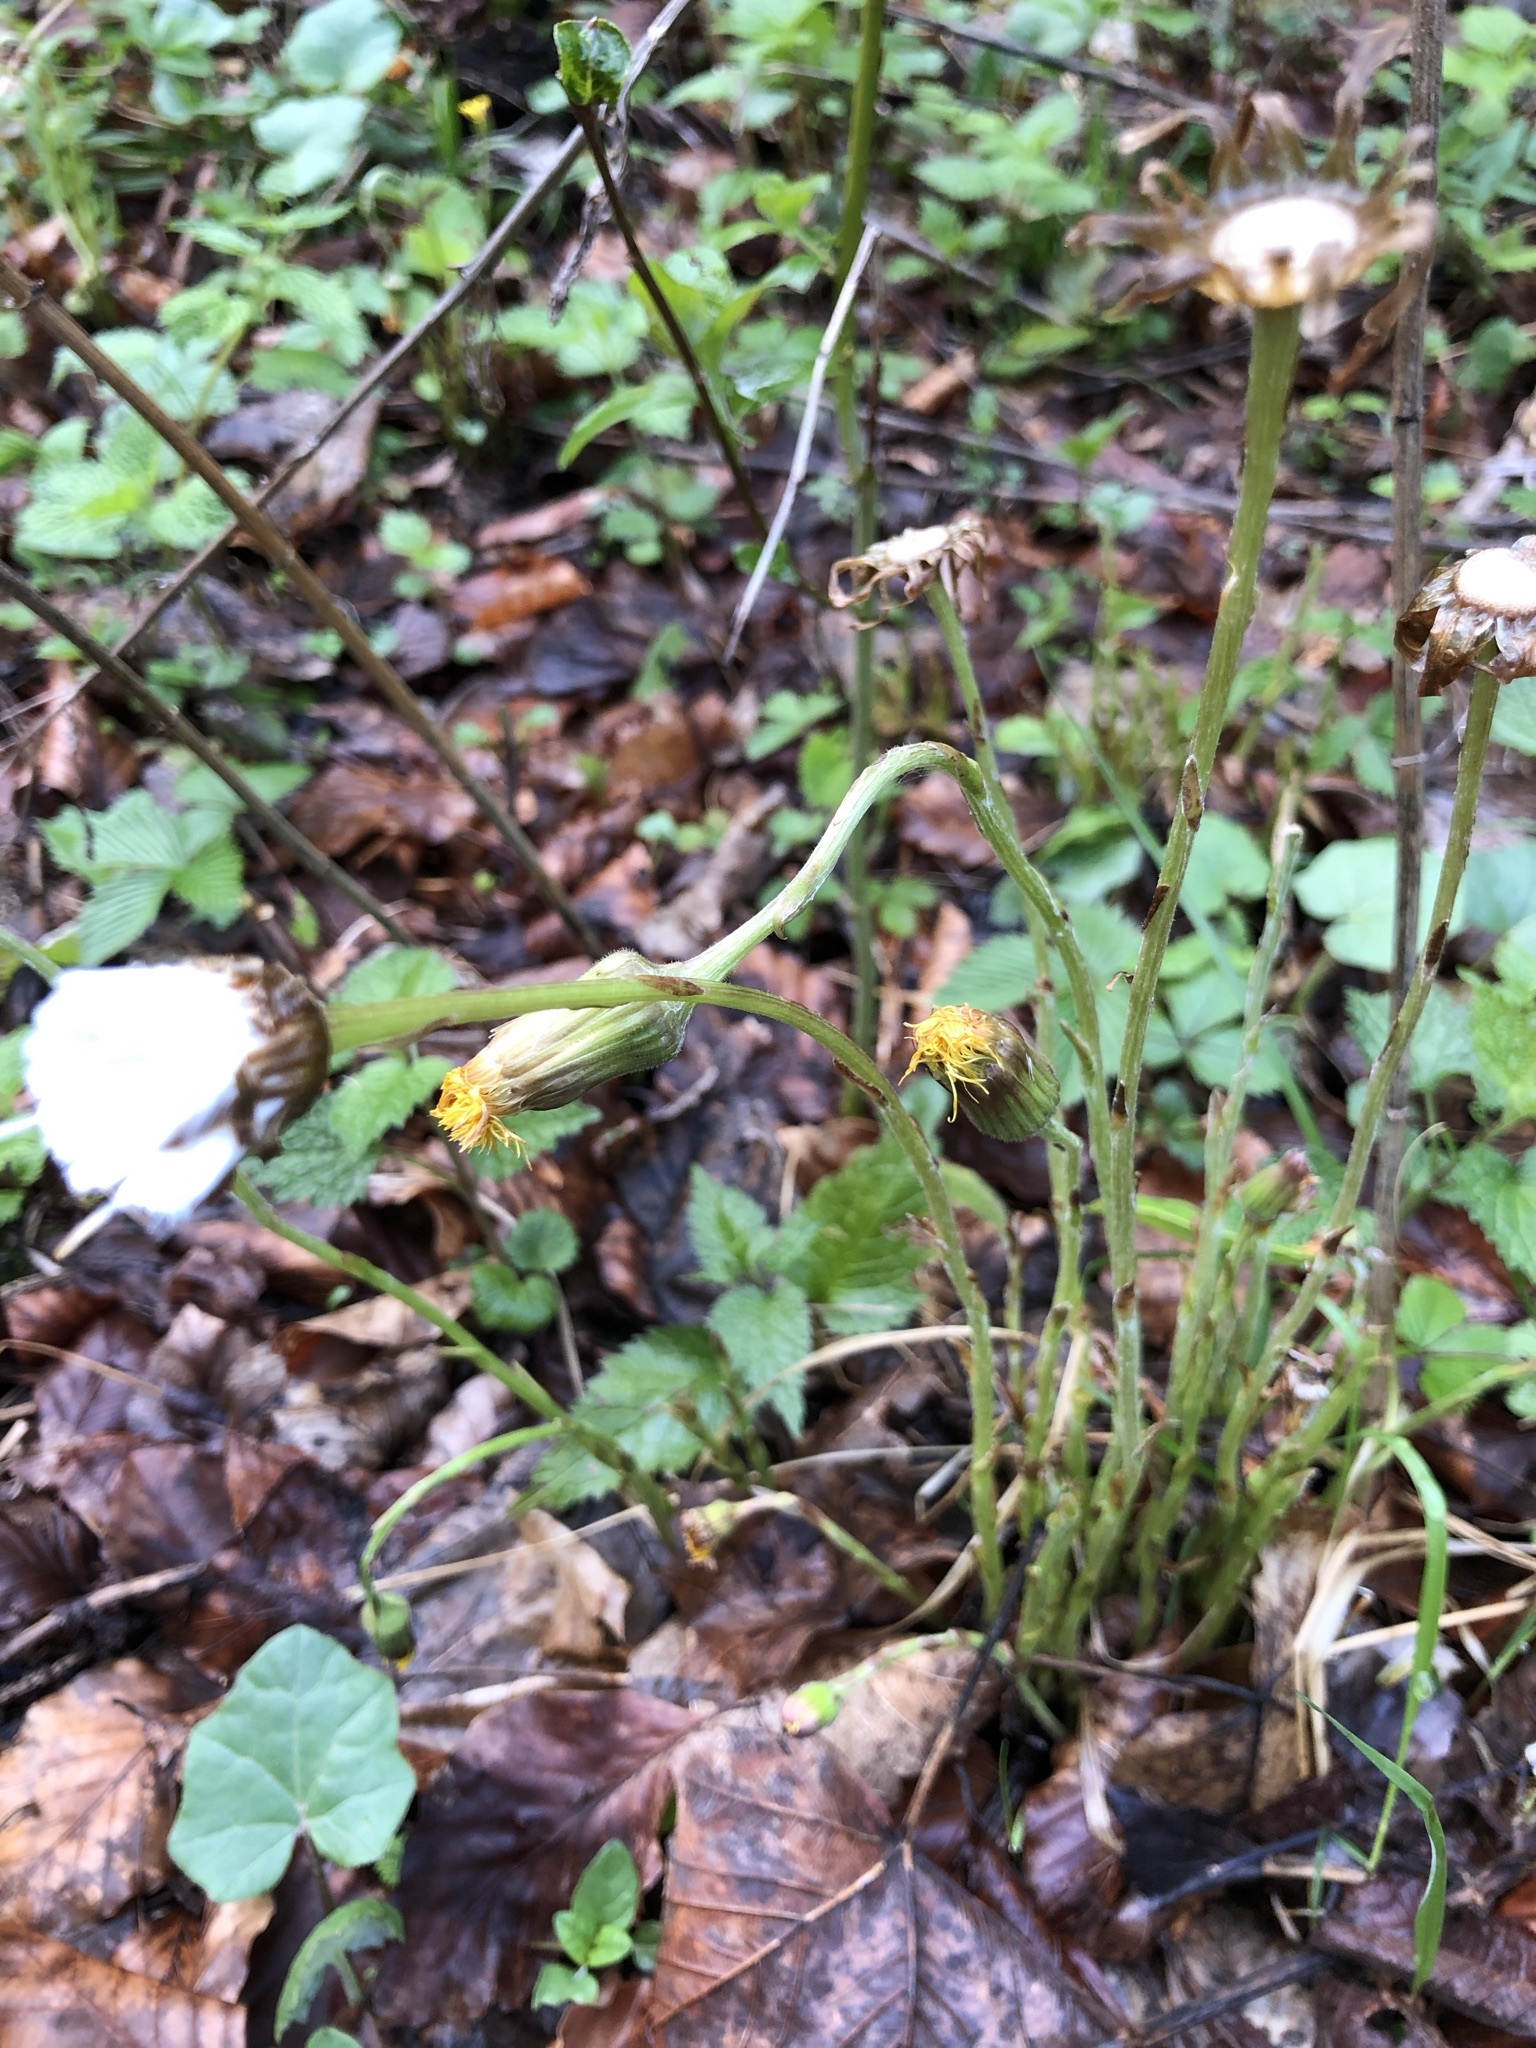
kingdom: Plantae
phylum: Tracheophyta
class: Magnoliopsida
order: Asterales
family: Asteraceae
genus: Tussilago
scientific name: Tussilago farfara
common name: Coltsfoot
